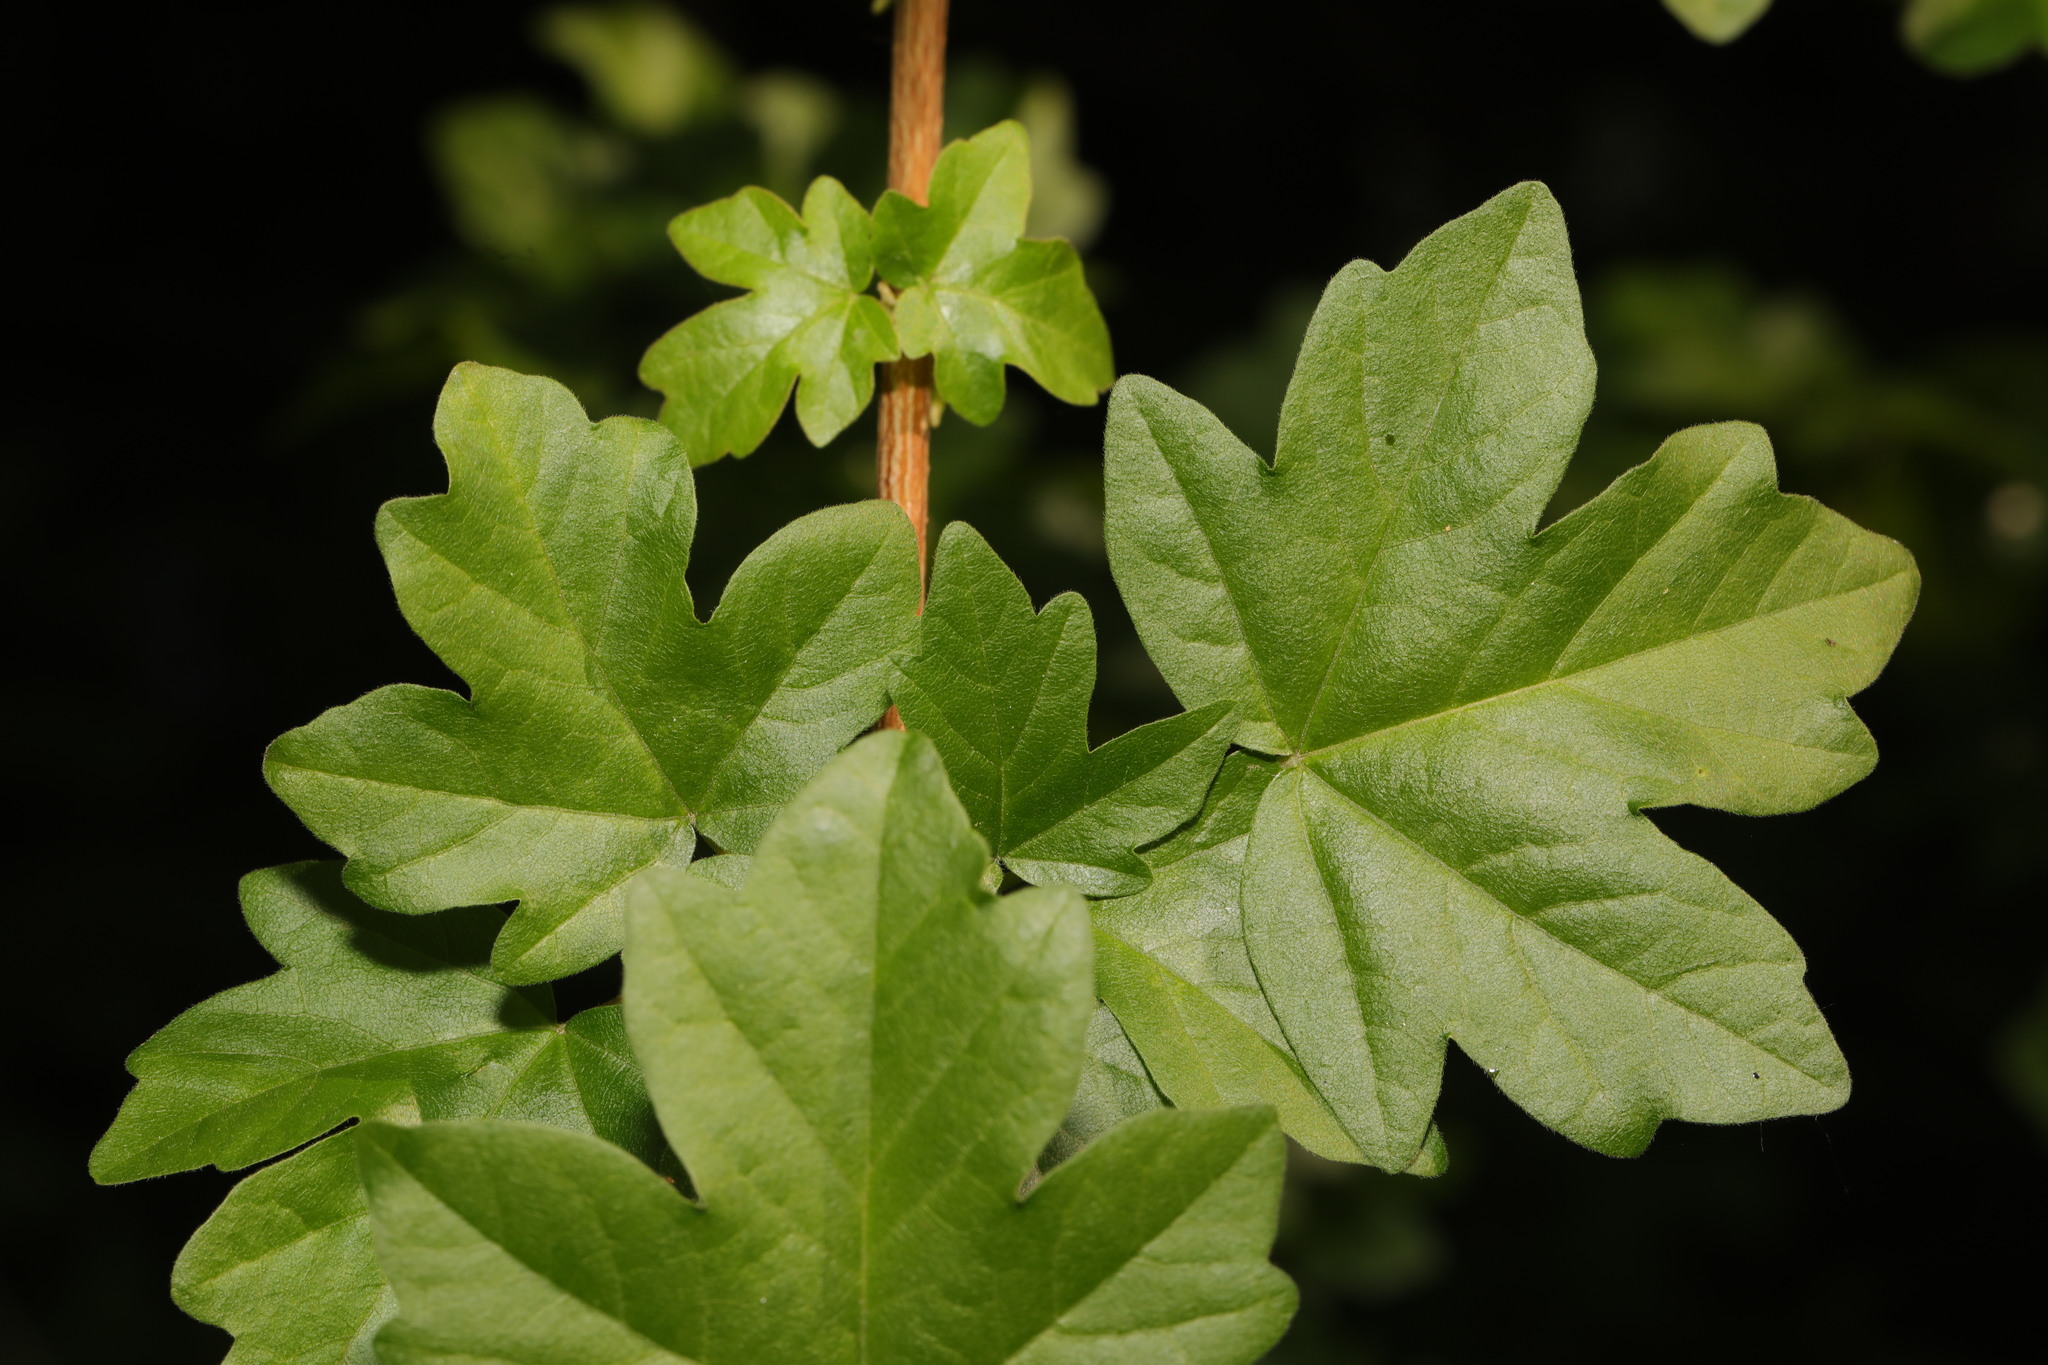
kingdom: Plantae
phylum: Tracheophyta
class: Magnoliopsida
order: Sapindales
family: Sapindaceae
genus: Acer
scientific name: Acer campestre
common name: Field maple
